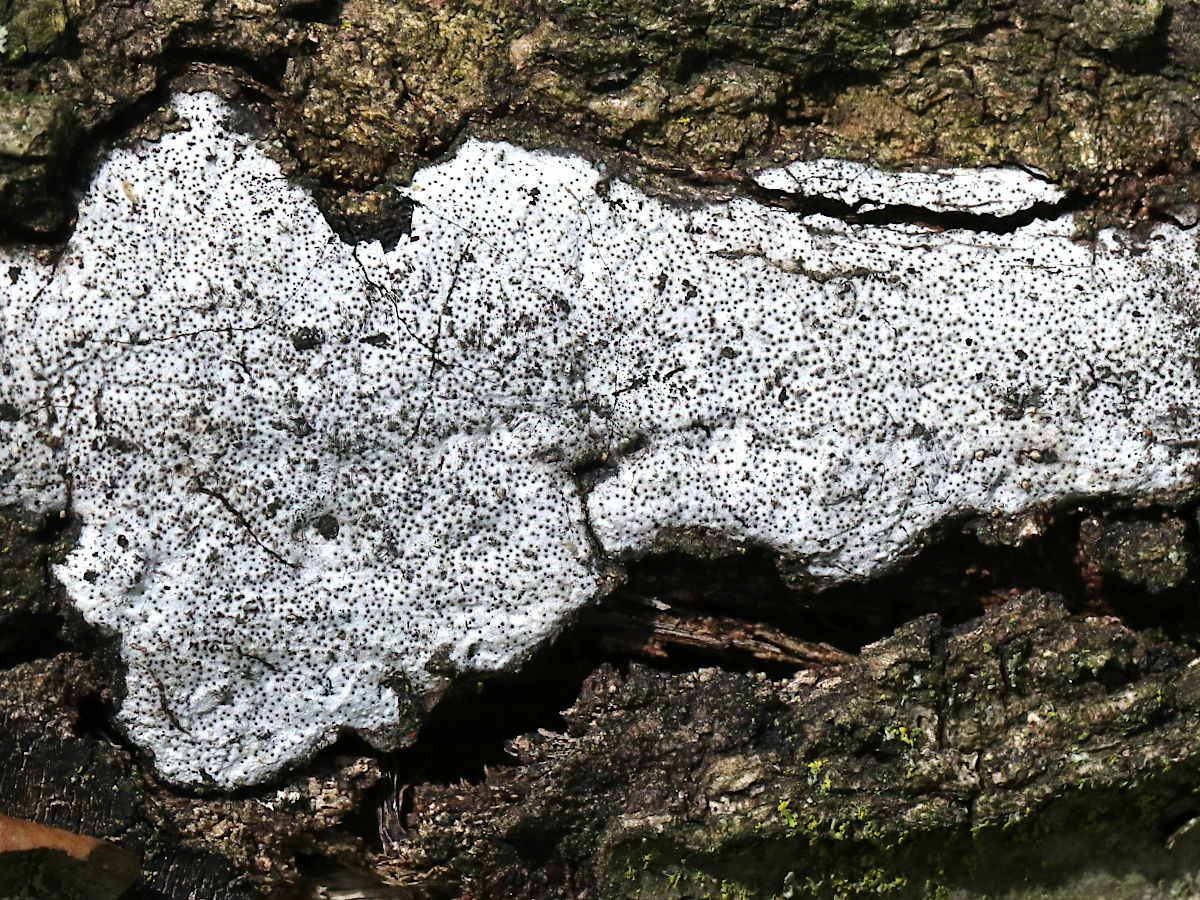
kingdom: Fungi
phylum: Ascomycota
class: Sordariomycetes
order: Xylariales
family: Graphostromataceae
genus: Biscogniauxia
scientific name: Biscogniauxia atropunctata
